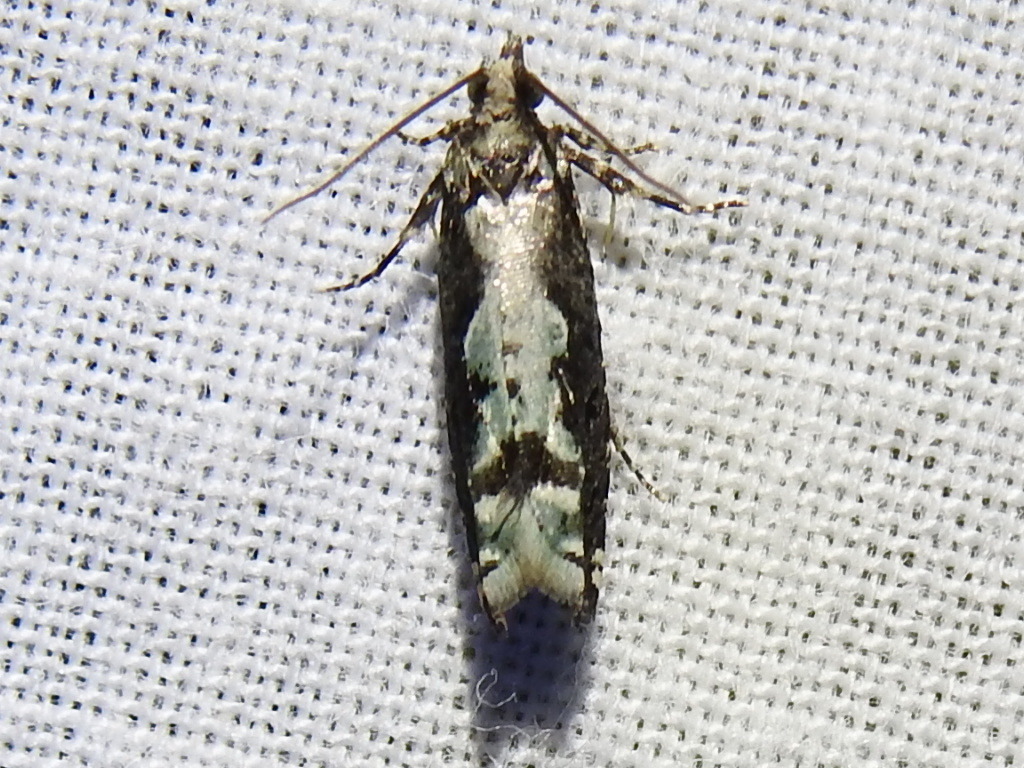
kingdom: Animalia
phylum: Arthropoda
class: Insecta
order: Lepidoptera
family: Tortricidae
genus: Chimoptesis
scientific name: Chimoptesis pennsylvaniana
